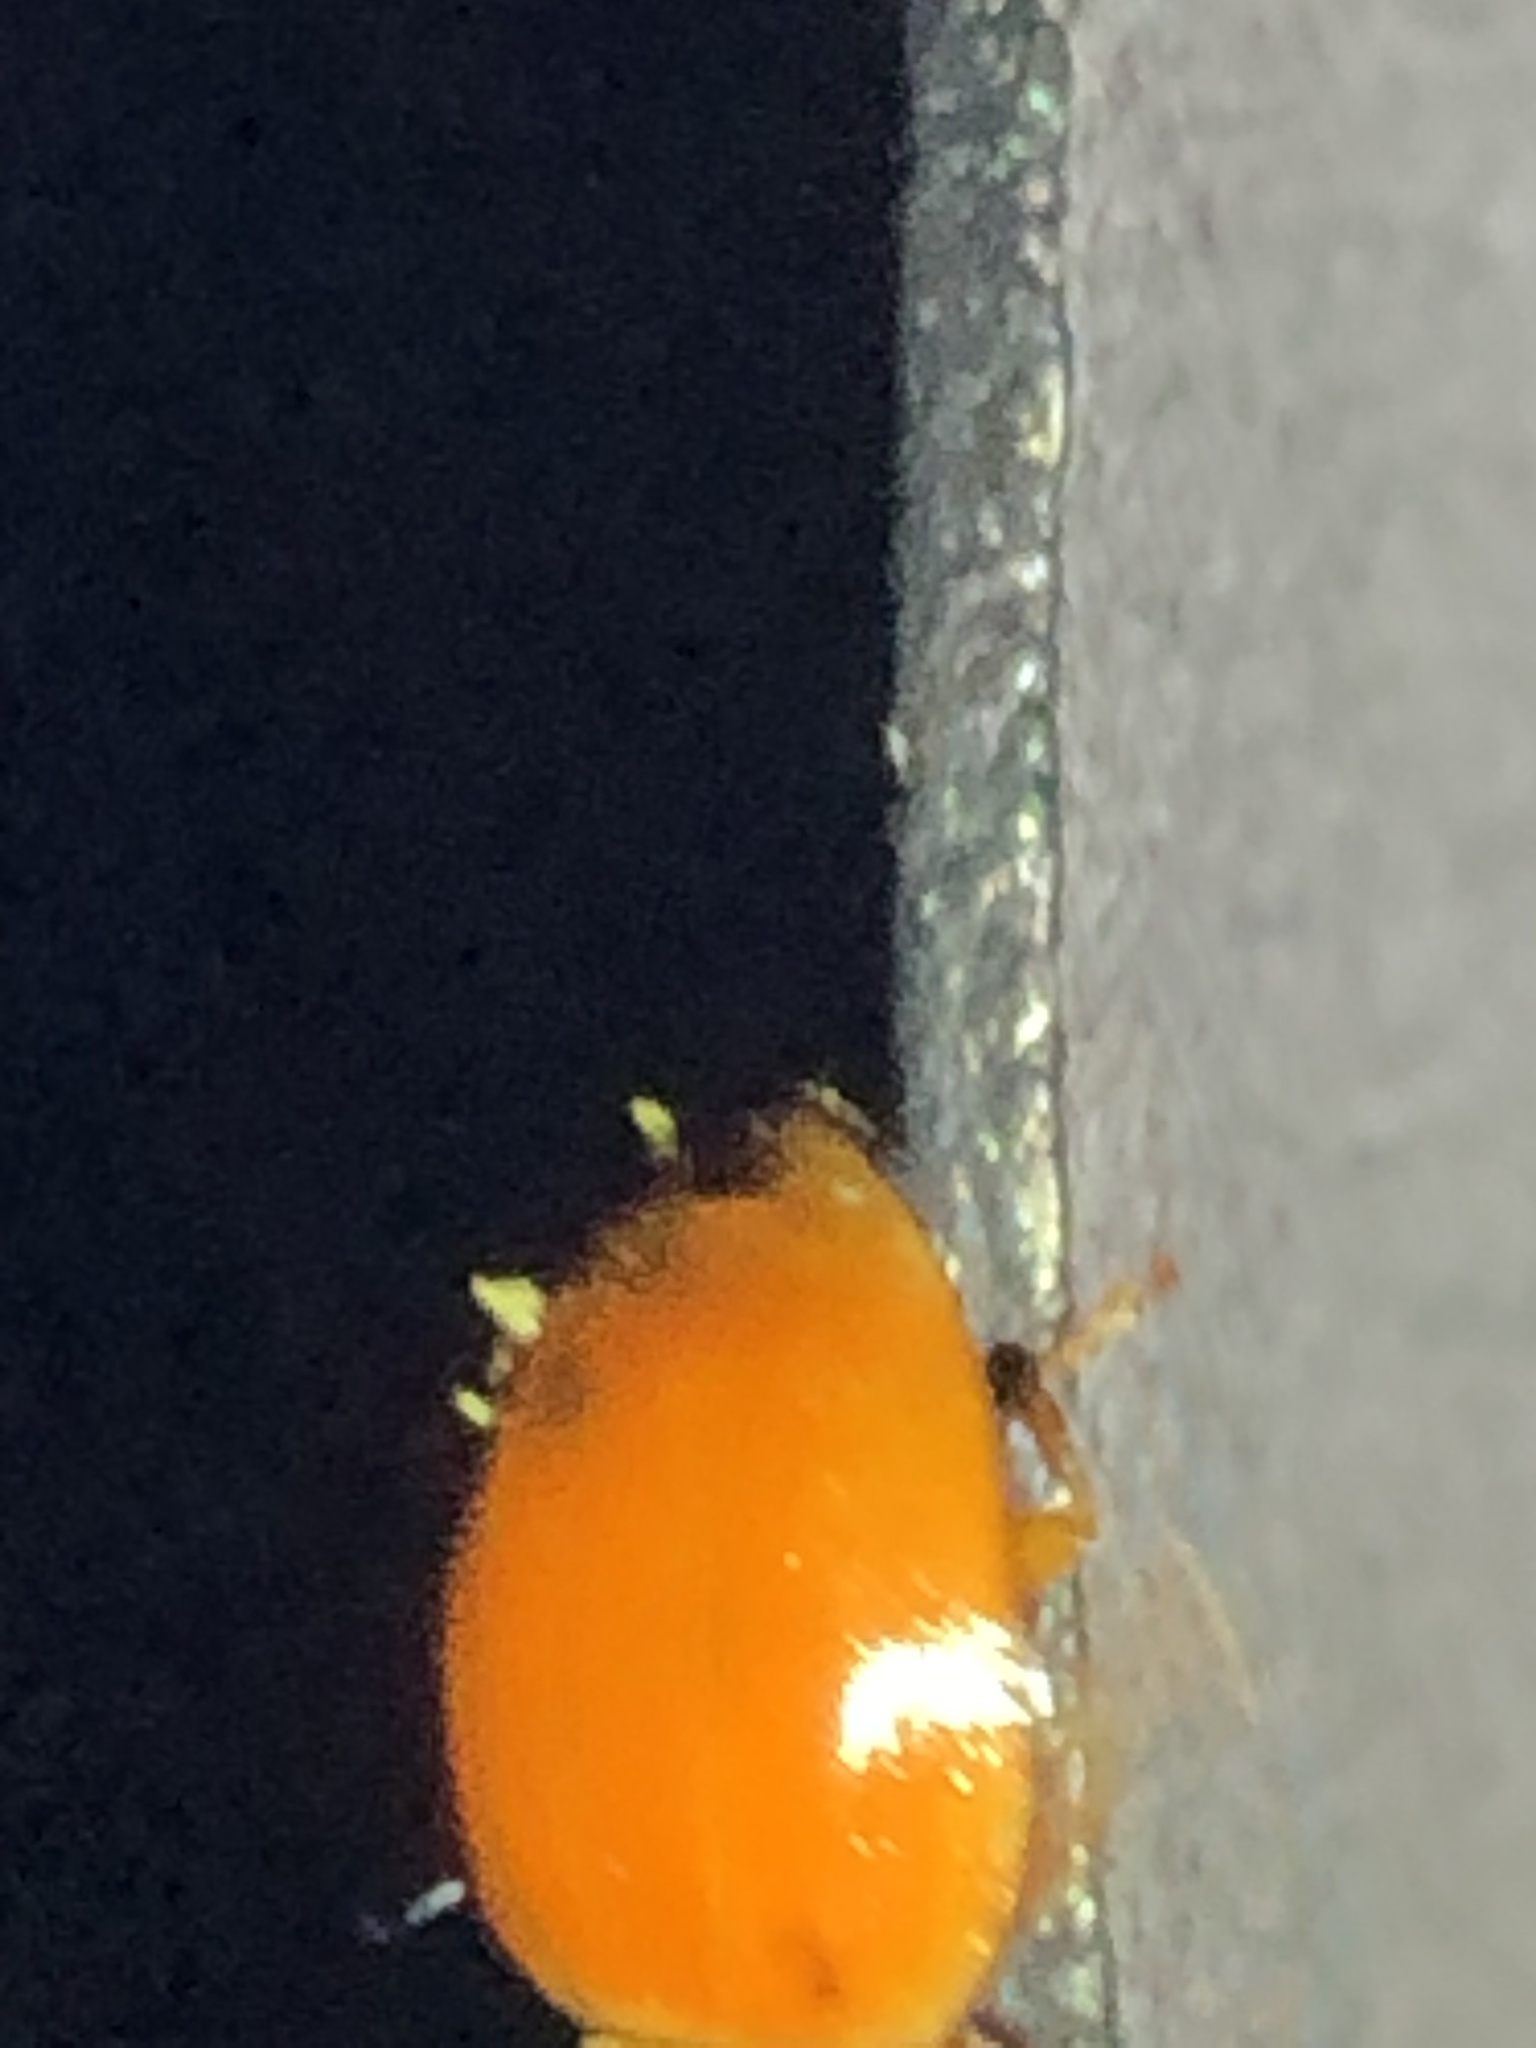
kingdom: Fungi
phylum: Ascomycota
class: Laboulbeniomycetes
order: Laboulbeniales
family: Laboulbeniaceae
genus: Hesperomyces
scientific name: Hesperomyces harmoniae
